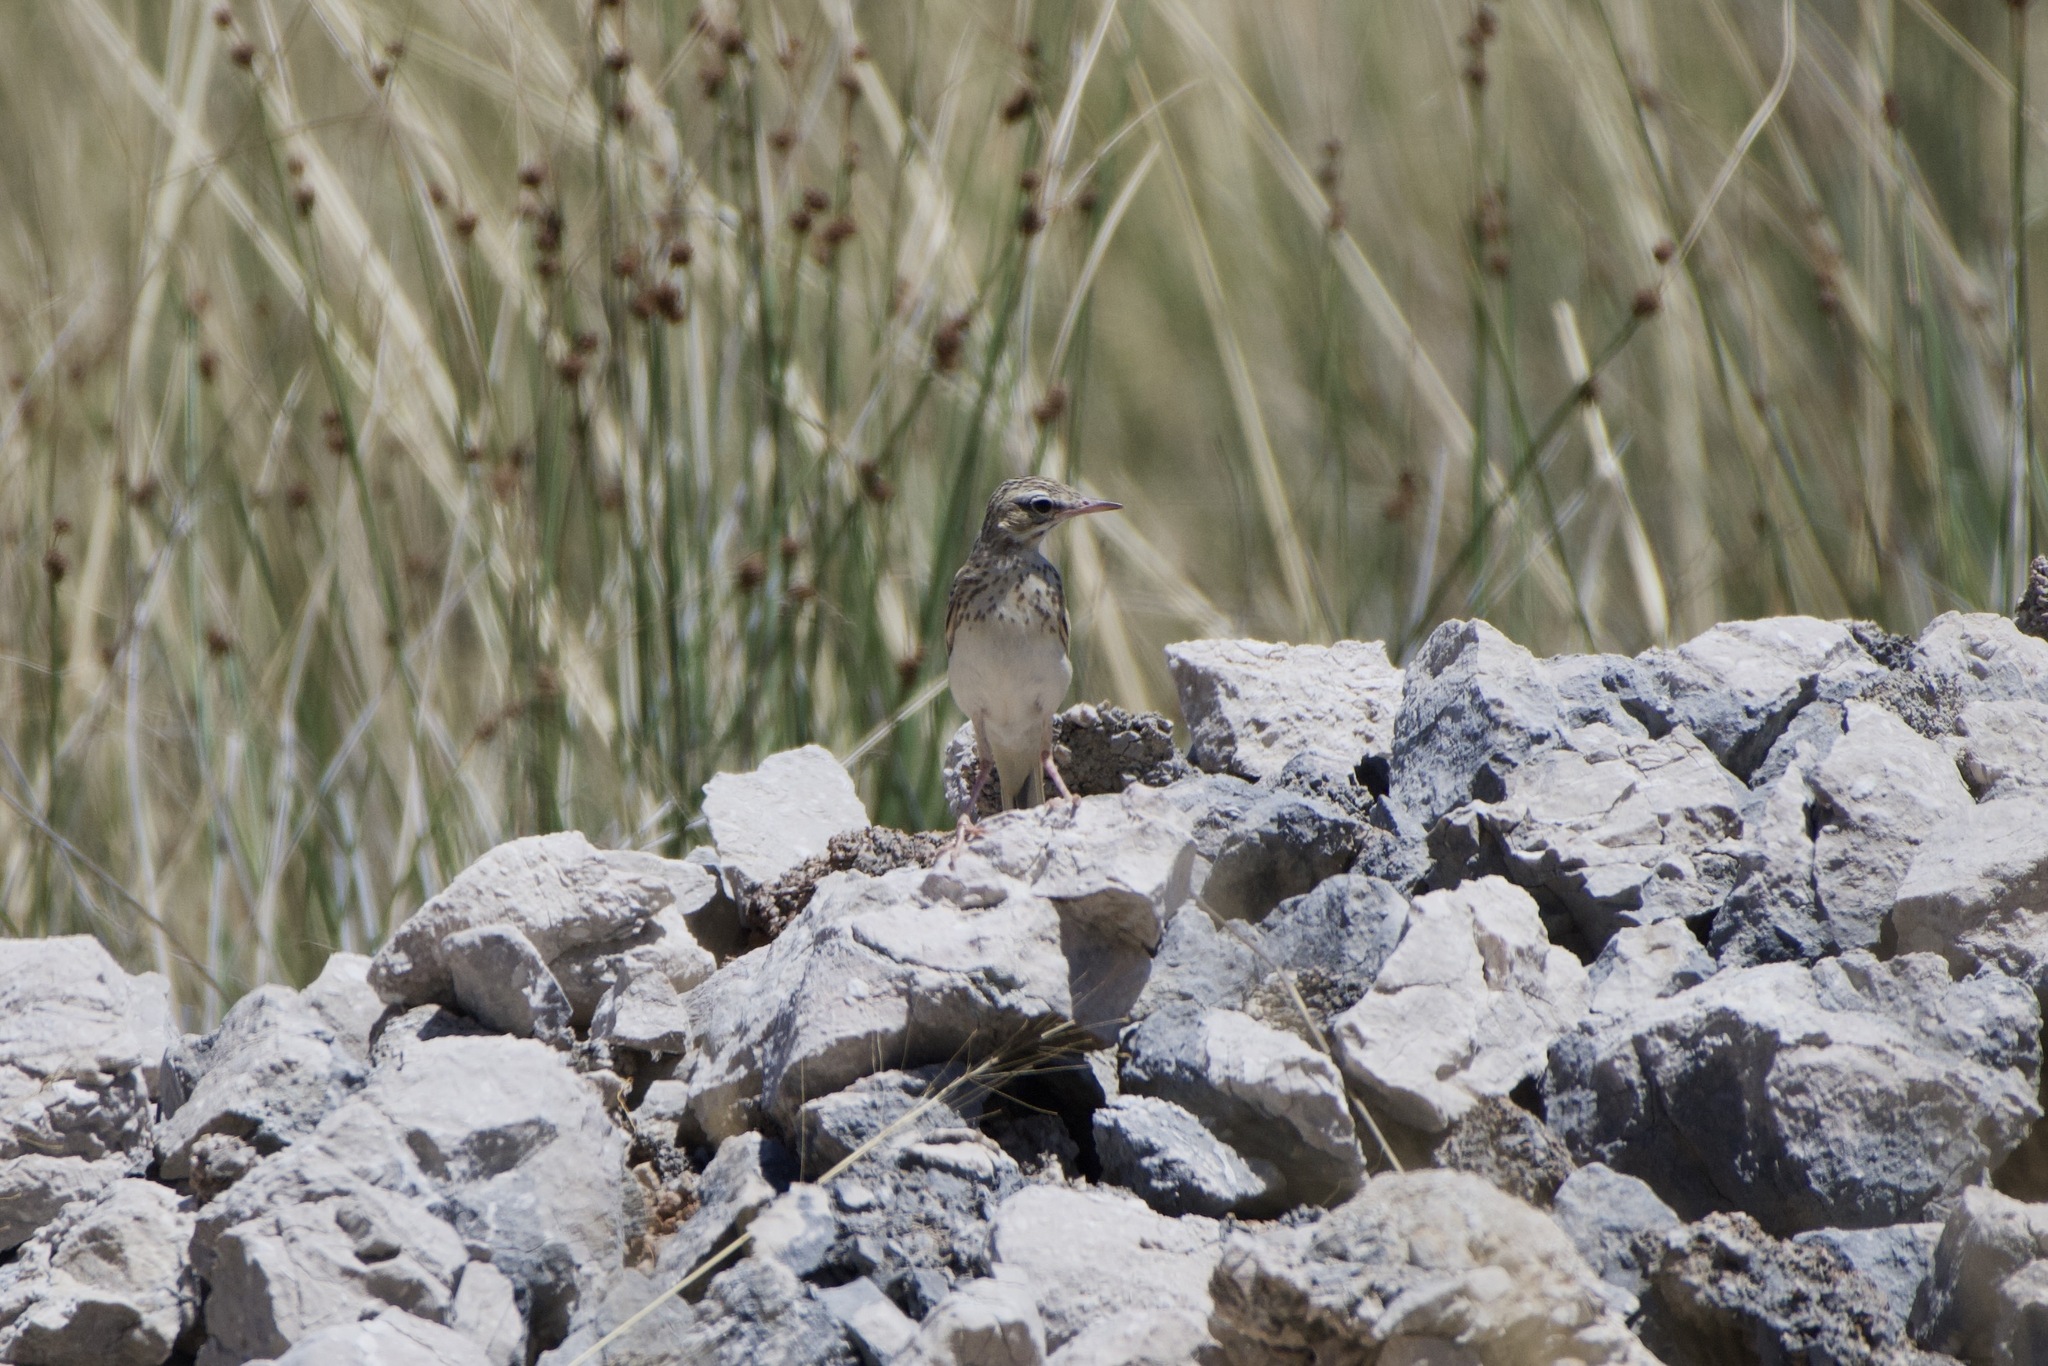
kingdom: Animalia
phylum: Chordata
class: Aves
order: Passeriformes
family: Motacillidae
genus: Anthus
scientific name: Anthus campestris
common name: Tawny pipit
